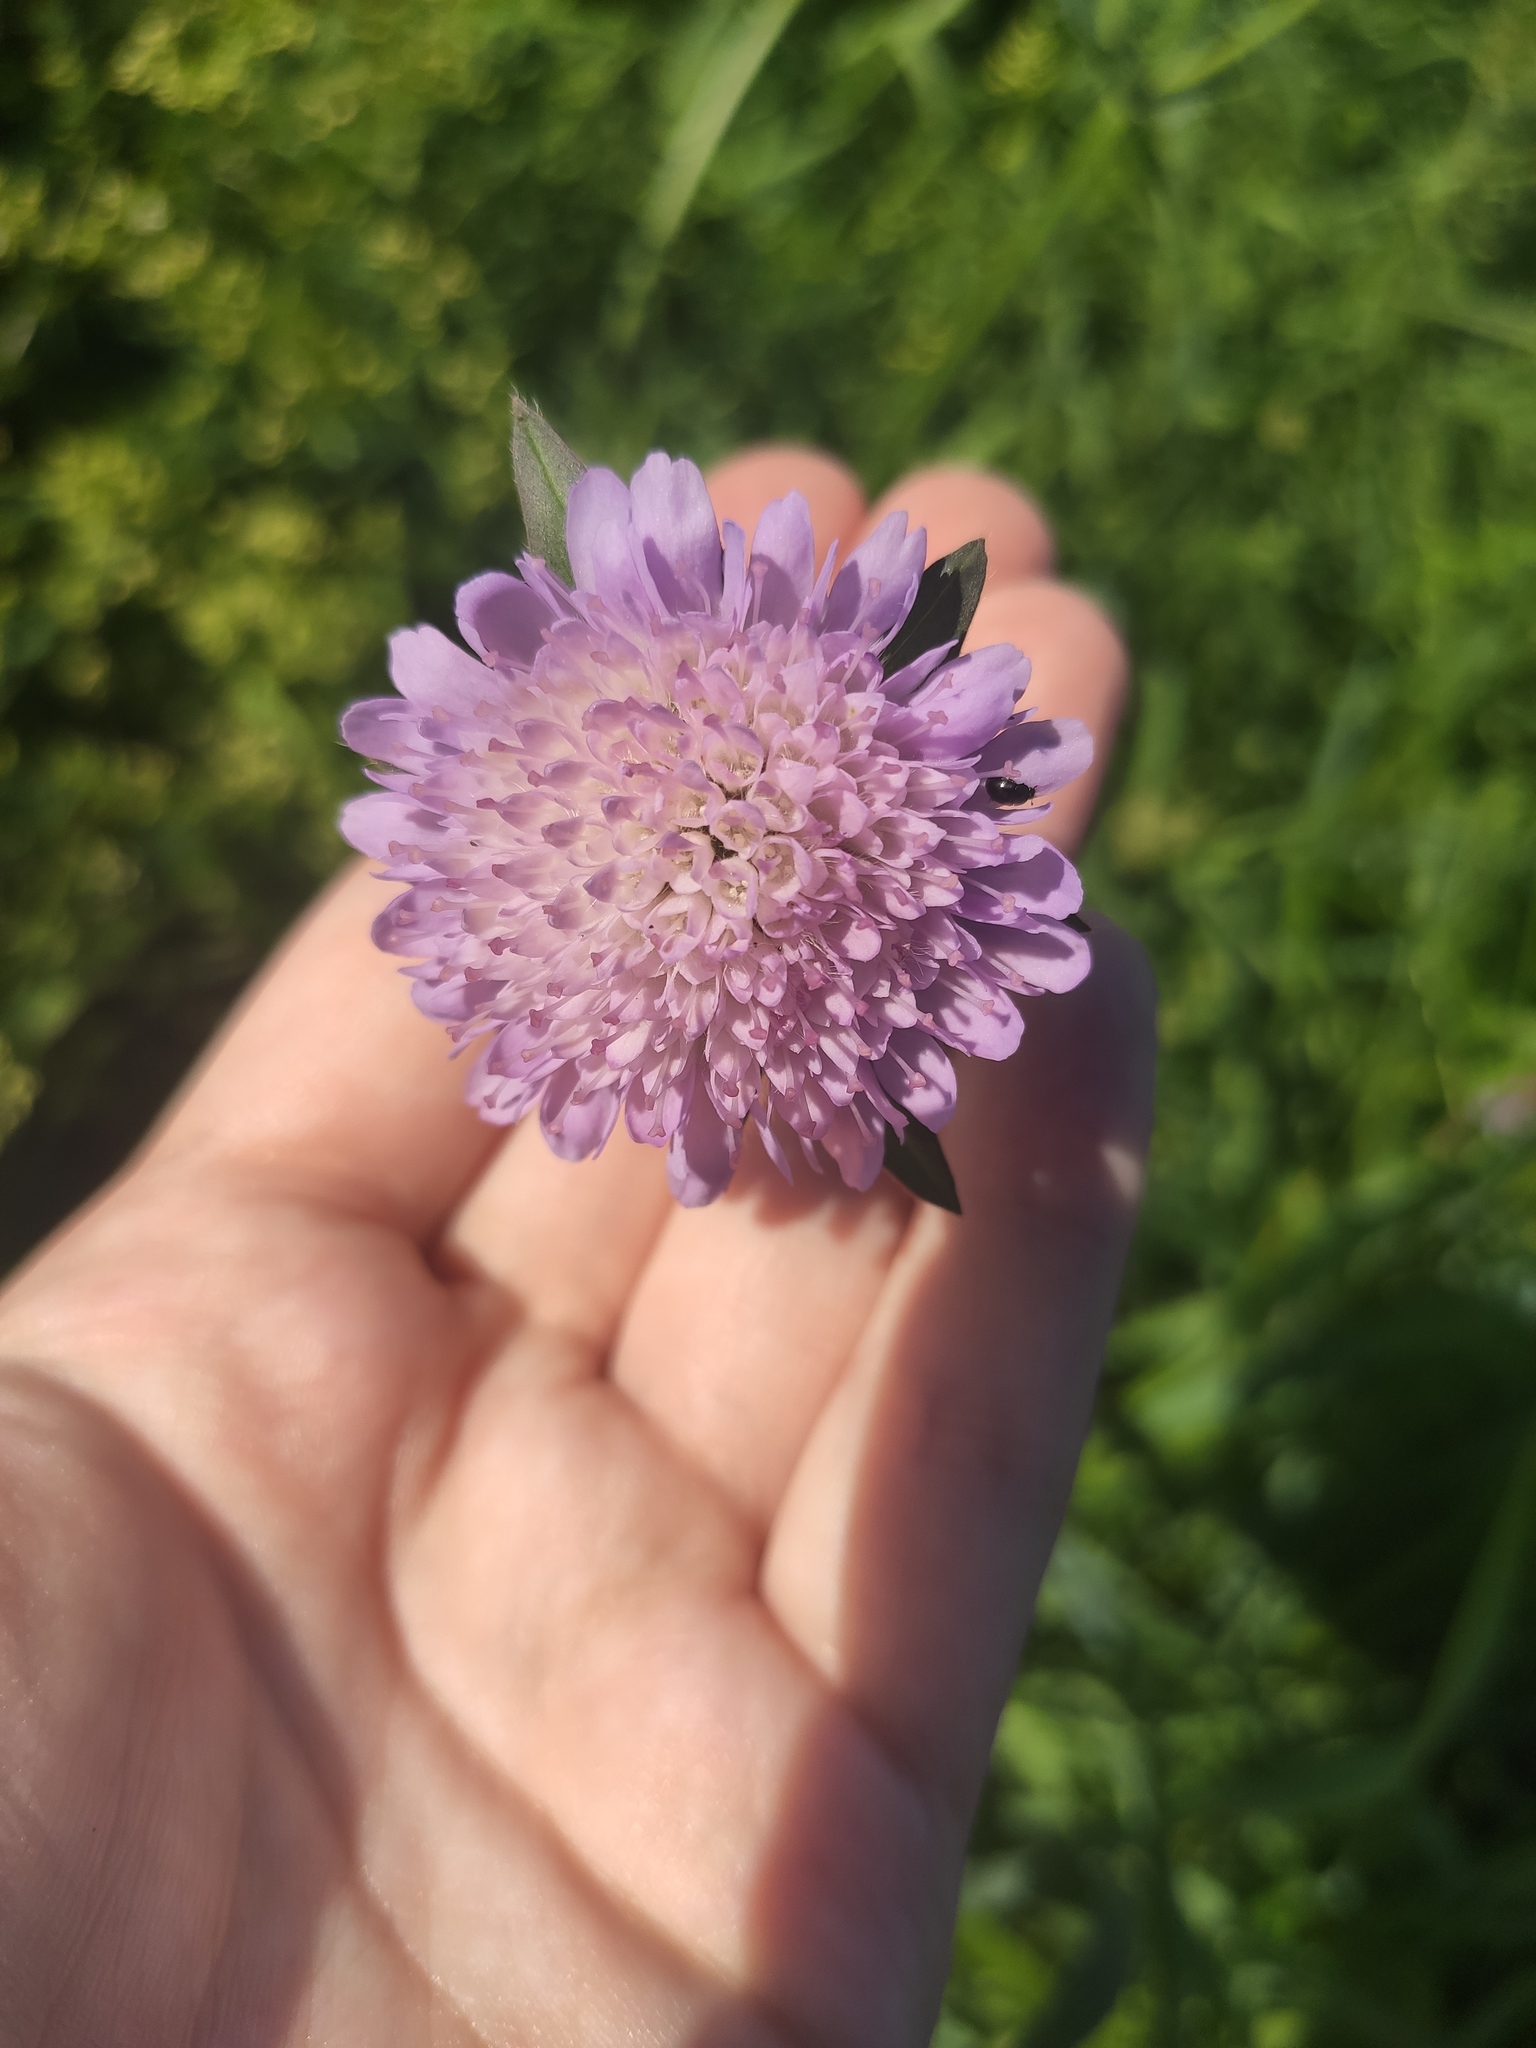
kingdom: Plantae
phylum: Tracheophyta
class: Magnoliopsida
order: Dipsacales
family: Caprifoliaceae
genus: Knautia
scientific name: Knautia arvensis
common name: Field scabiosa
